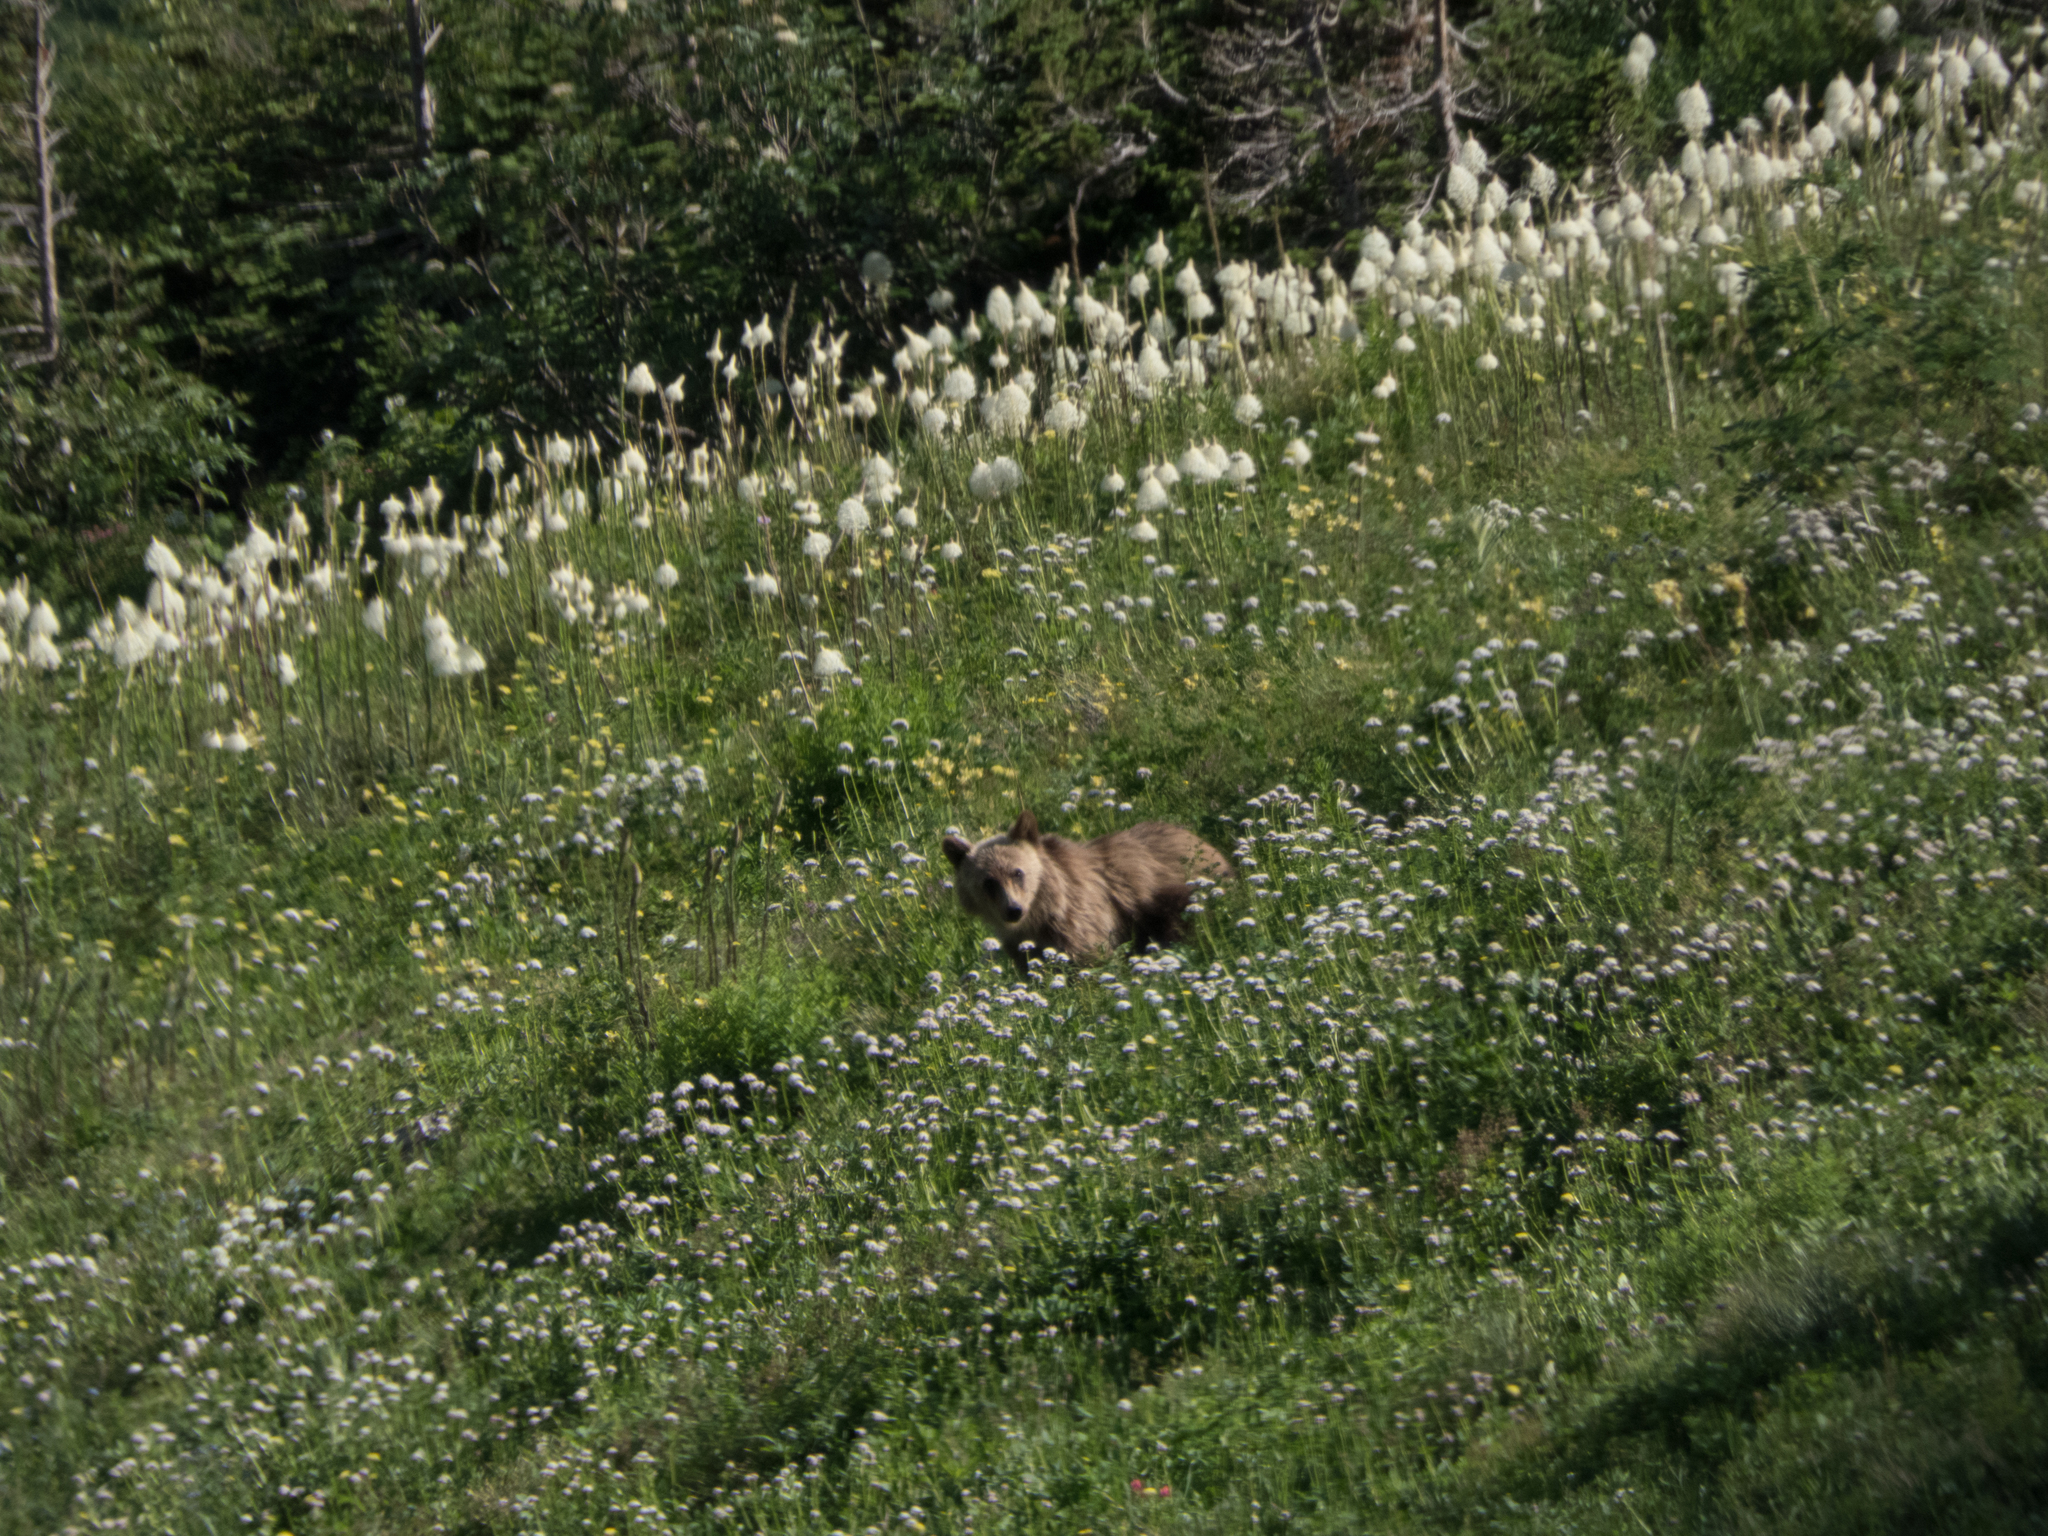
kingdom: Plantae
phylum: Tracheophyta
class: Liliopsida
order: Liliales
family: Melanthiaceae
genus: Xerophyllum
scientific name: Xerophyllum tenax
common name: Bear-grass
